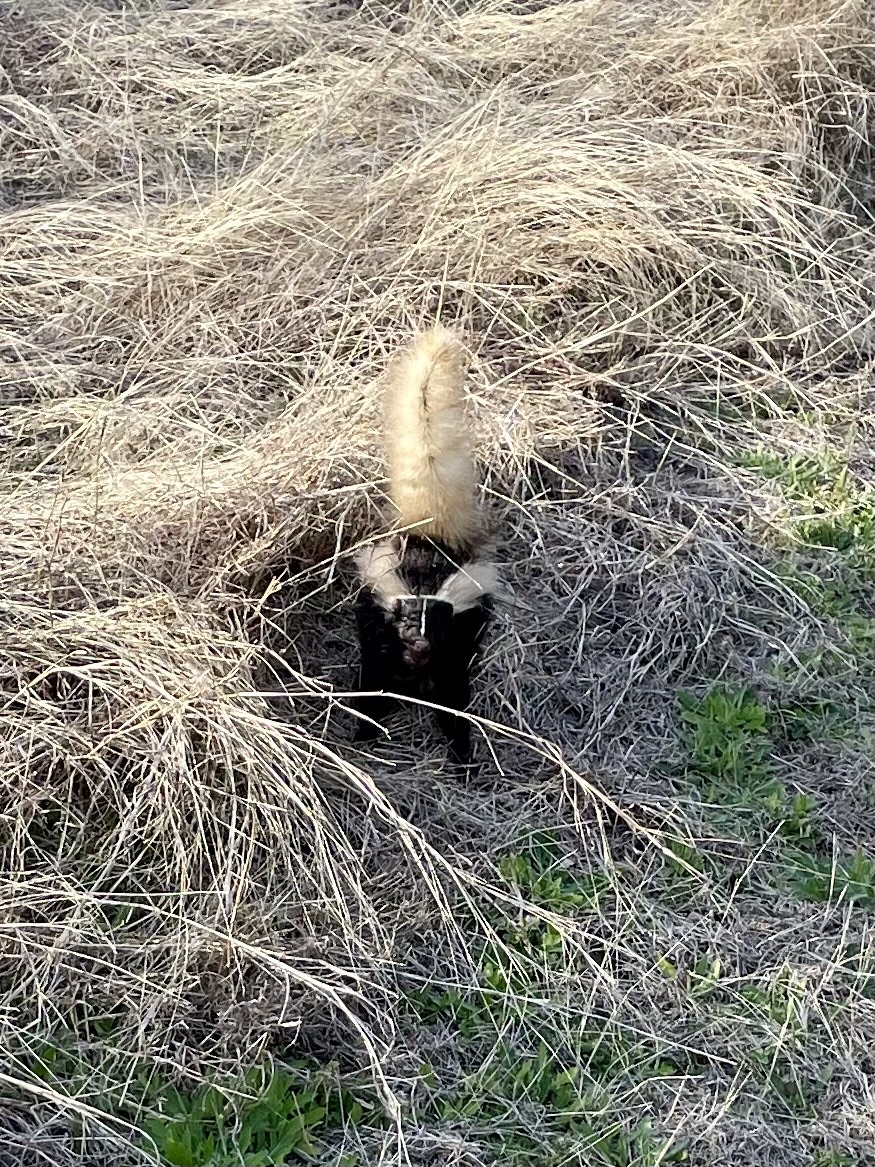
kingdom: Animalia
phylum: Chordata
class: Mammalia
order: Carnivora
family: Mephitidae
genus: Mephitis
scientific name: Mephitis mephitis
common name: Striped skunk
